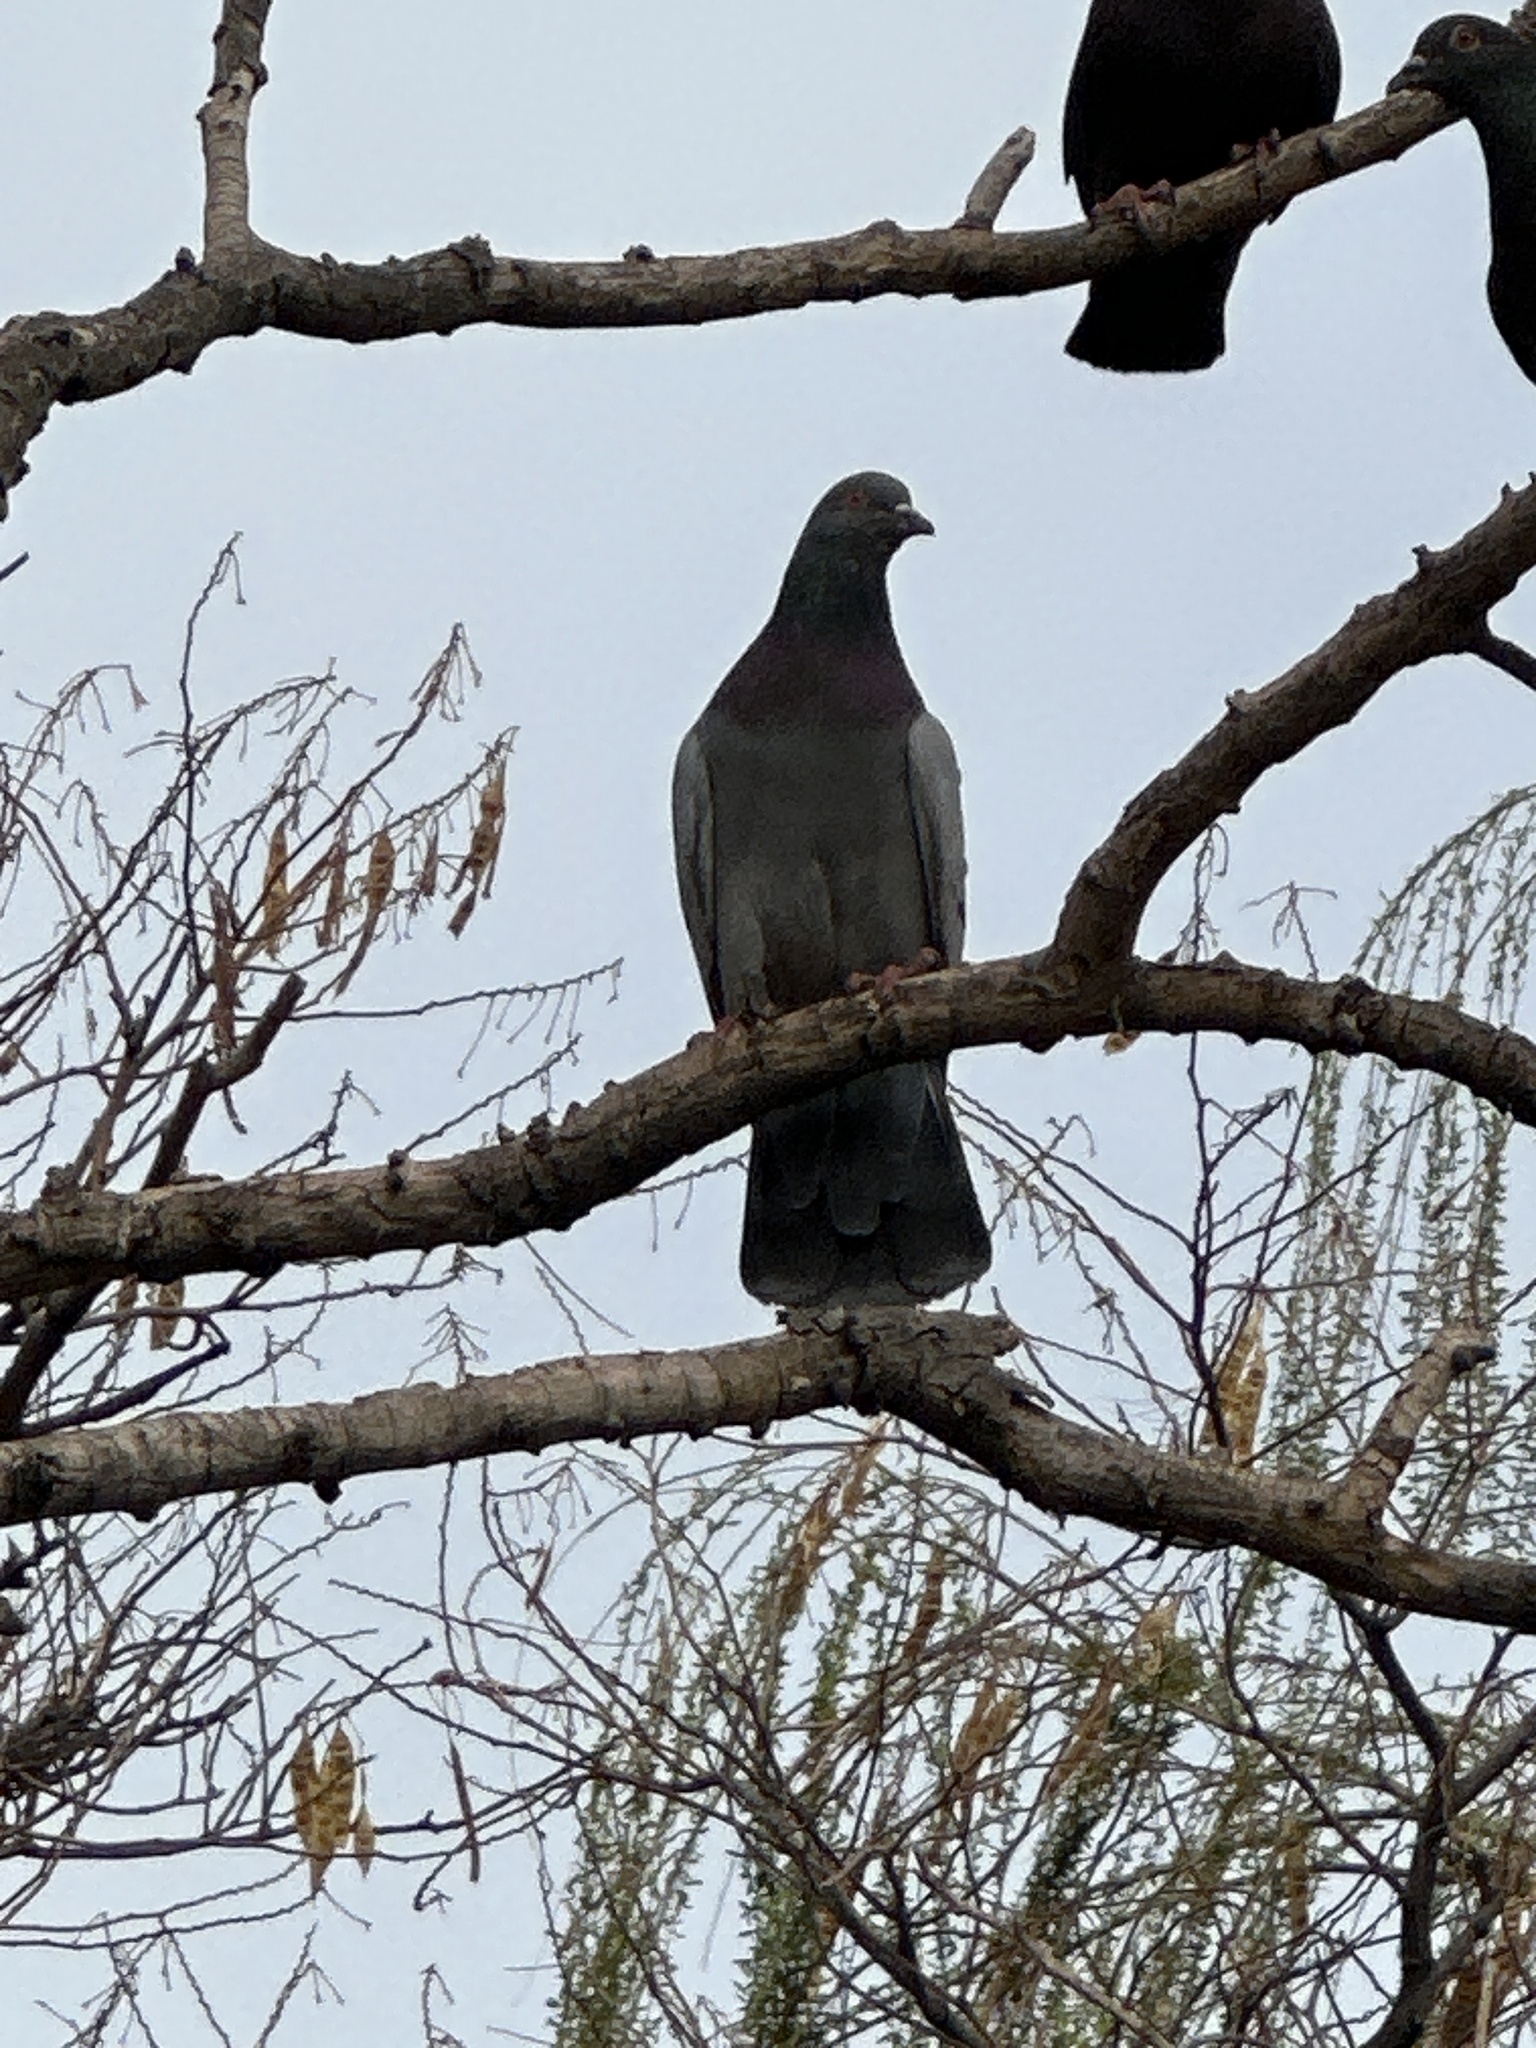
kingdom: Animalia
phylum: Chordata
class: Aves
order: Columbiformes
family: Columbidae
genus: Columba
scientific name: Columba livia
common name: Rock pigeon
